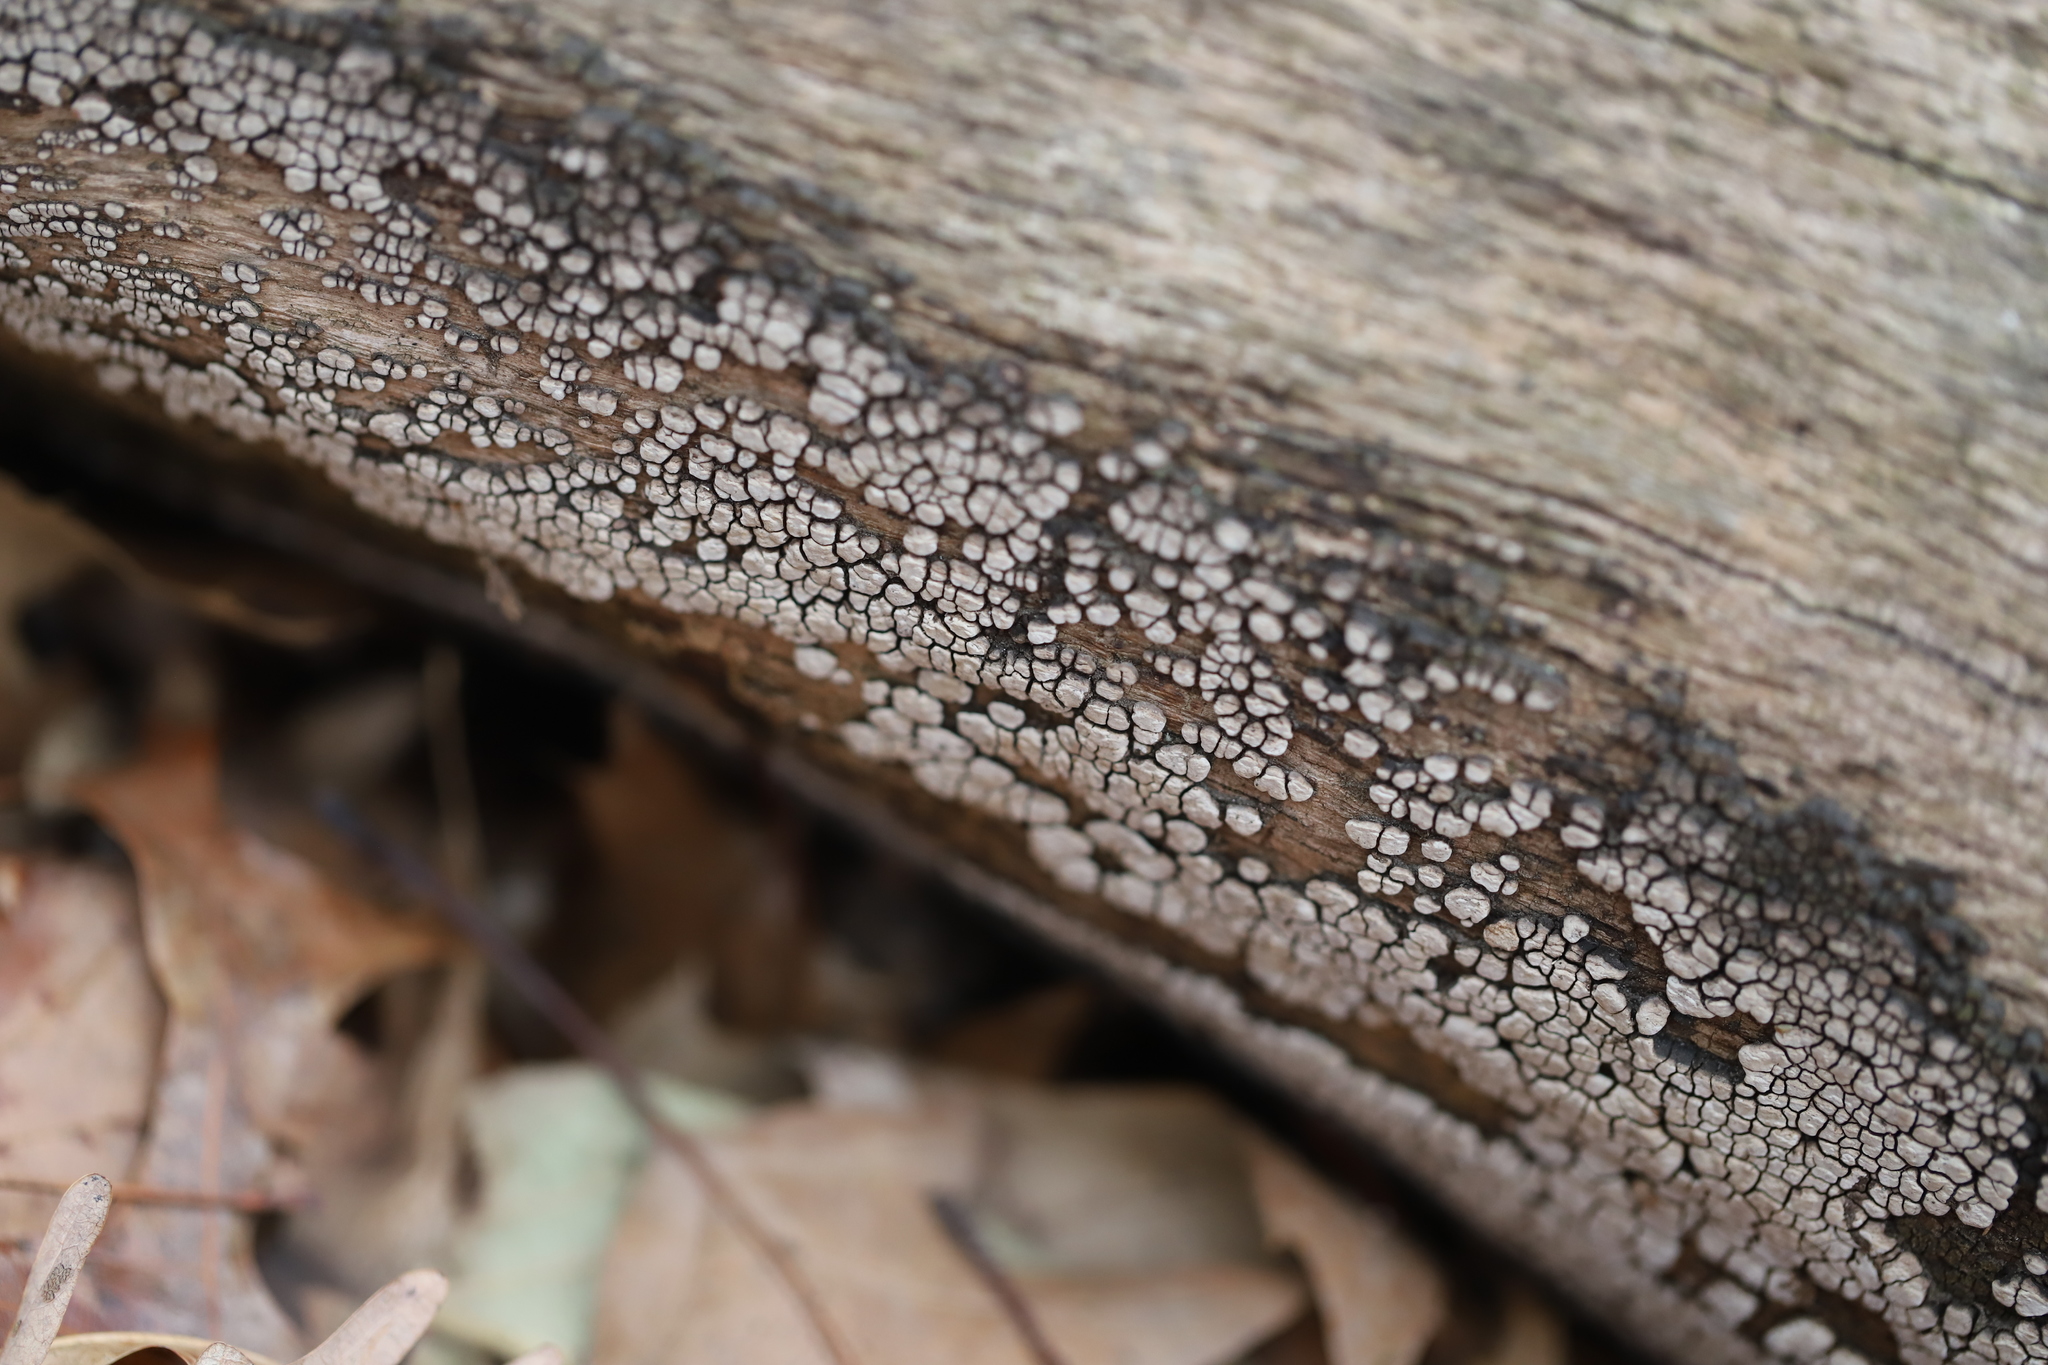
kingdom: Fungi
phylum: Basidiomycota
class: Agaricomycetes
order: Russulales
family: Stereaceae
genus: Xylobolus
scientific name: Xylobolus frustulatus
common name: Ceramic parchment
